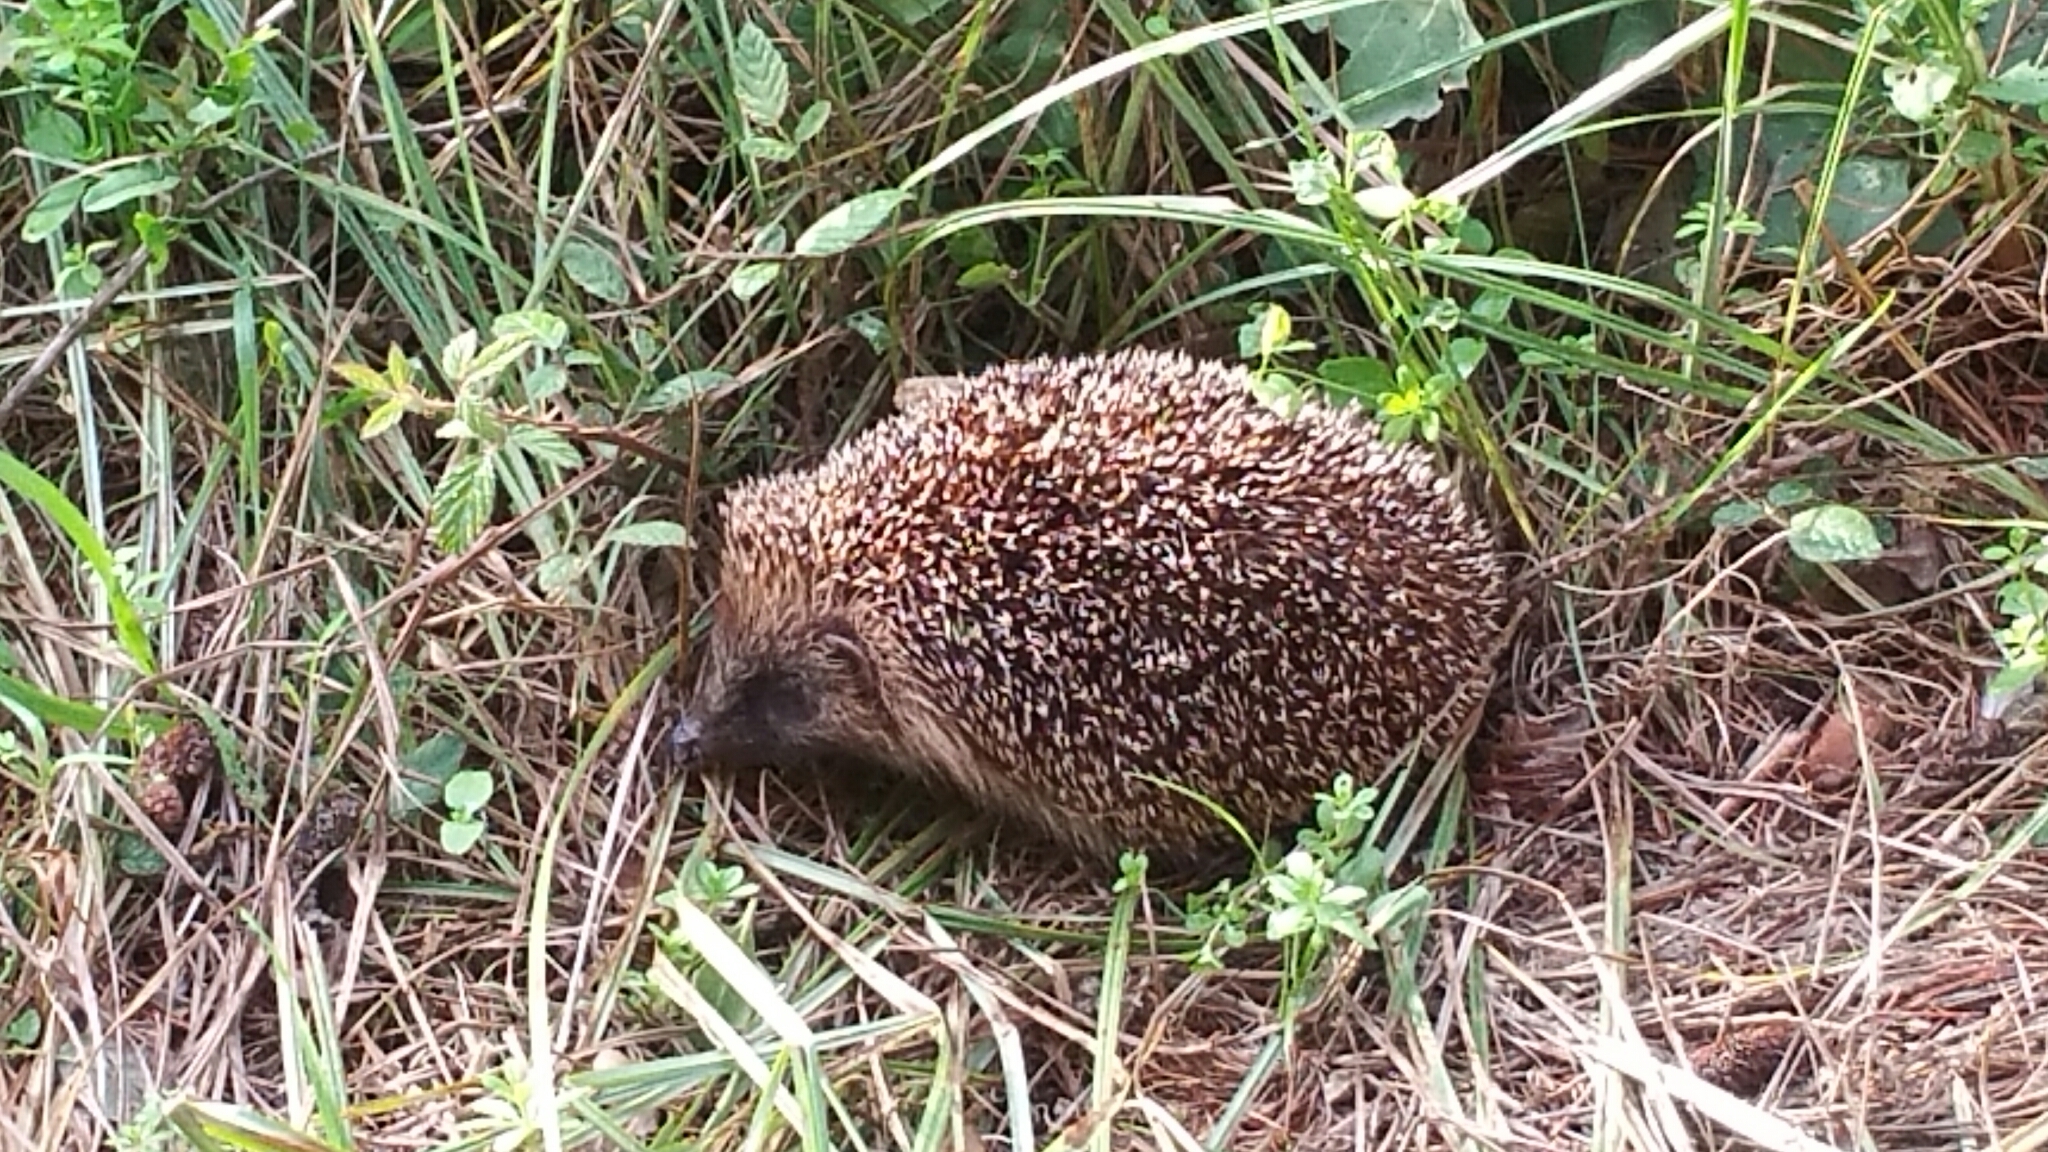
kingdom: Animalia
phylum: Chordata
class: Mammalia
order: Erinaceomorpha
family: Erinaceidae
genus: Erinaceus
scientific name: Erinaceus europaeus
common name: West european hedgehog
